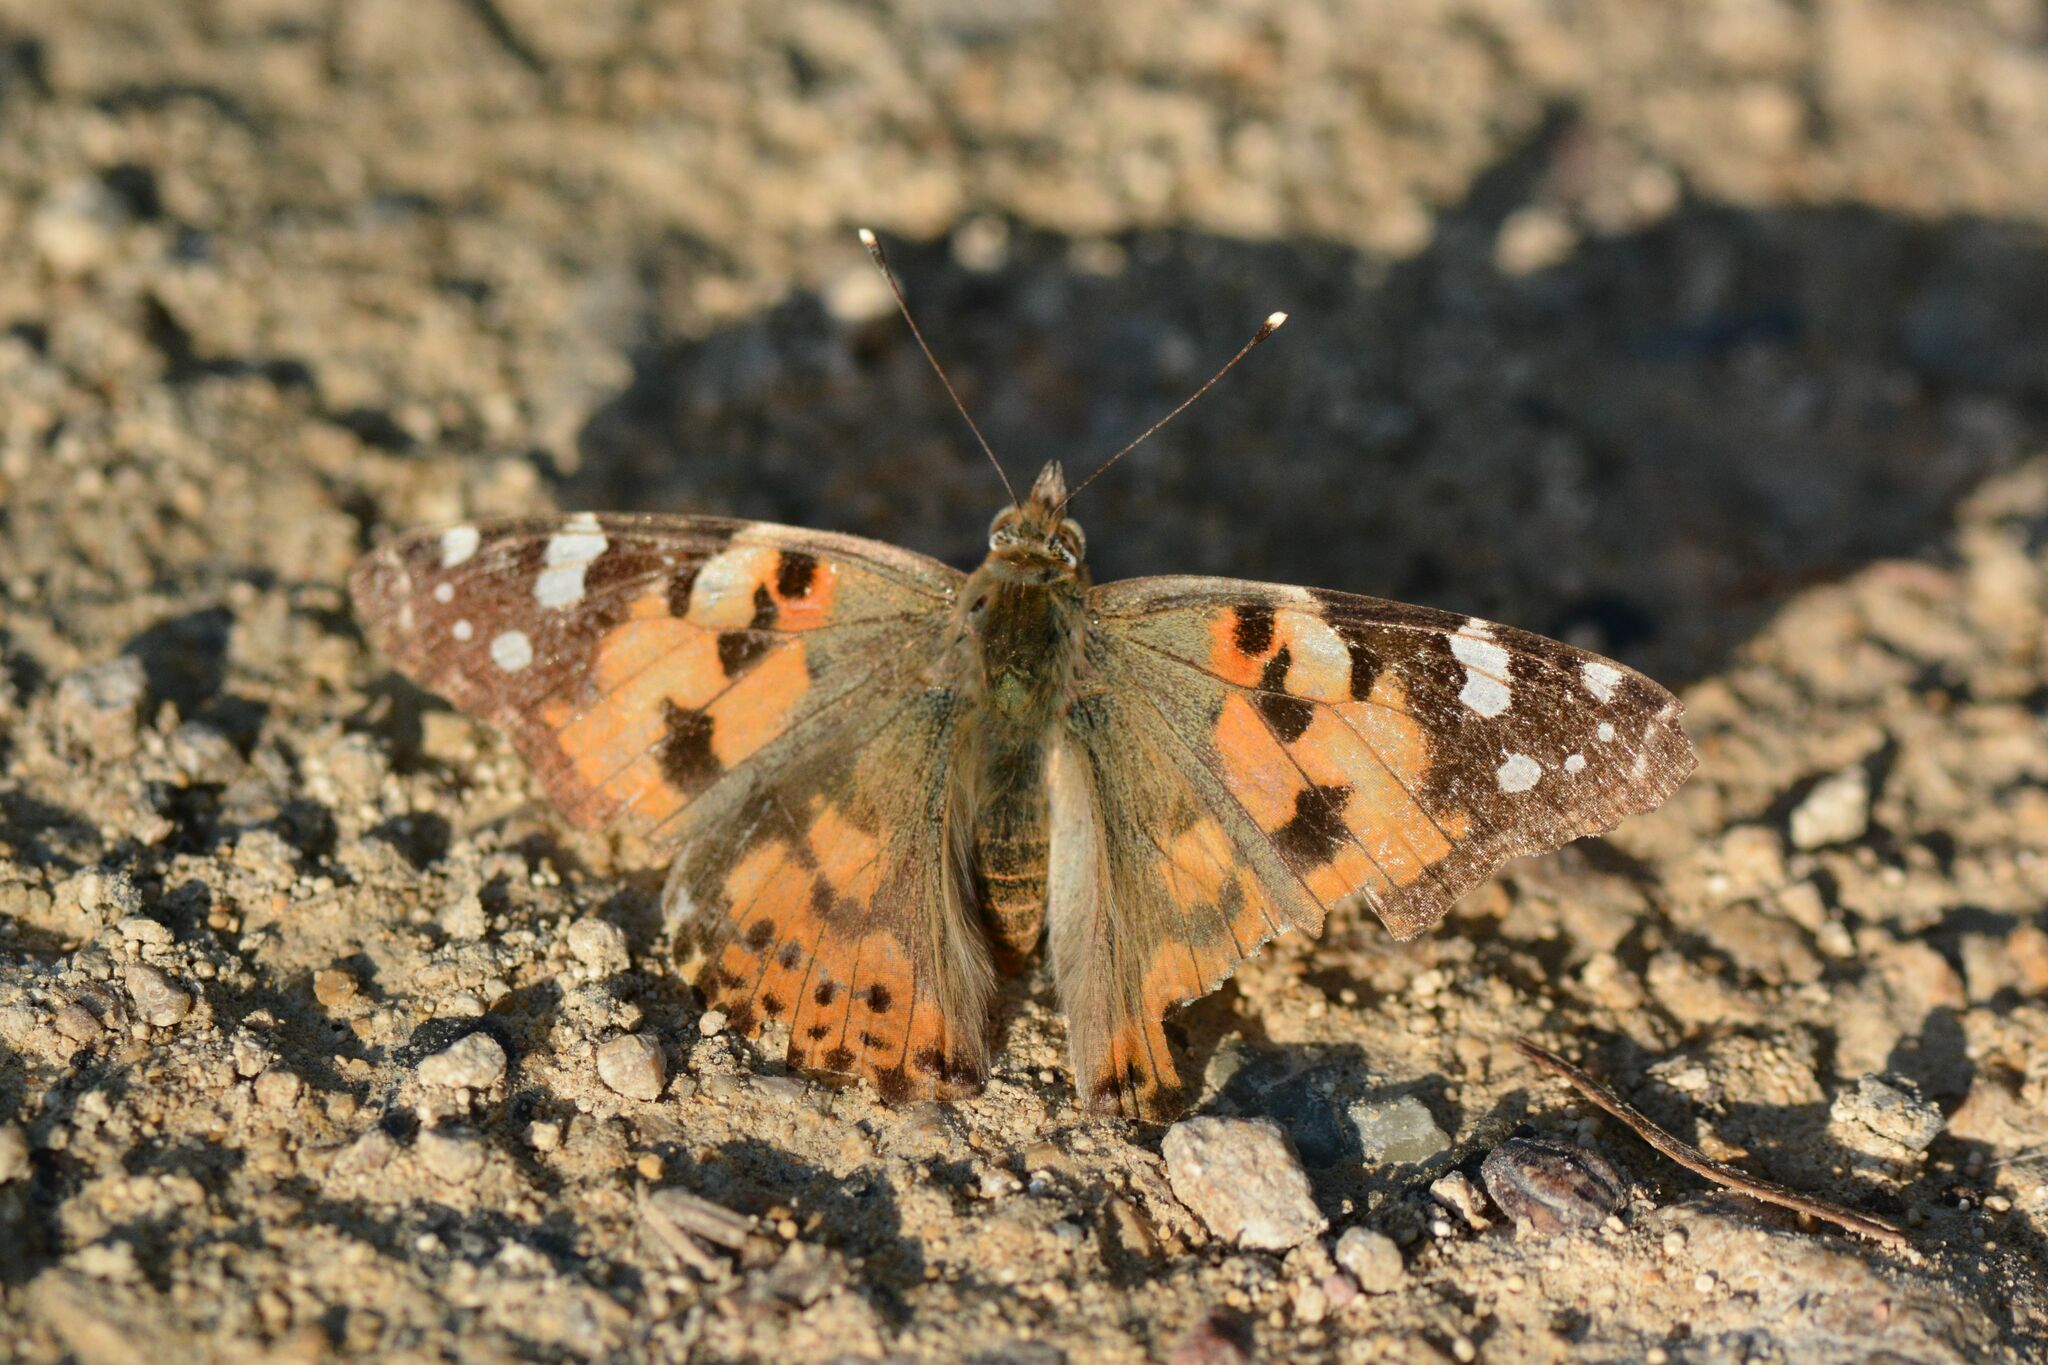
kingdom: Animalia
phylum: Arthropoda
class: Insecta
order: Lepidoptera
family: Nymphalidae
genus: Vanessa
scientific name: Vanessa cardui
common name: Painted lady
